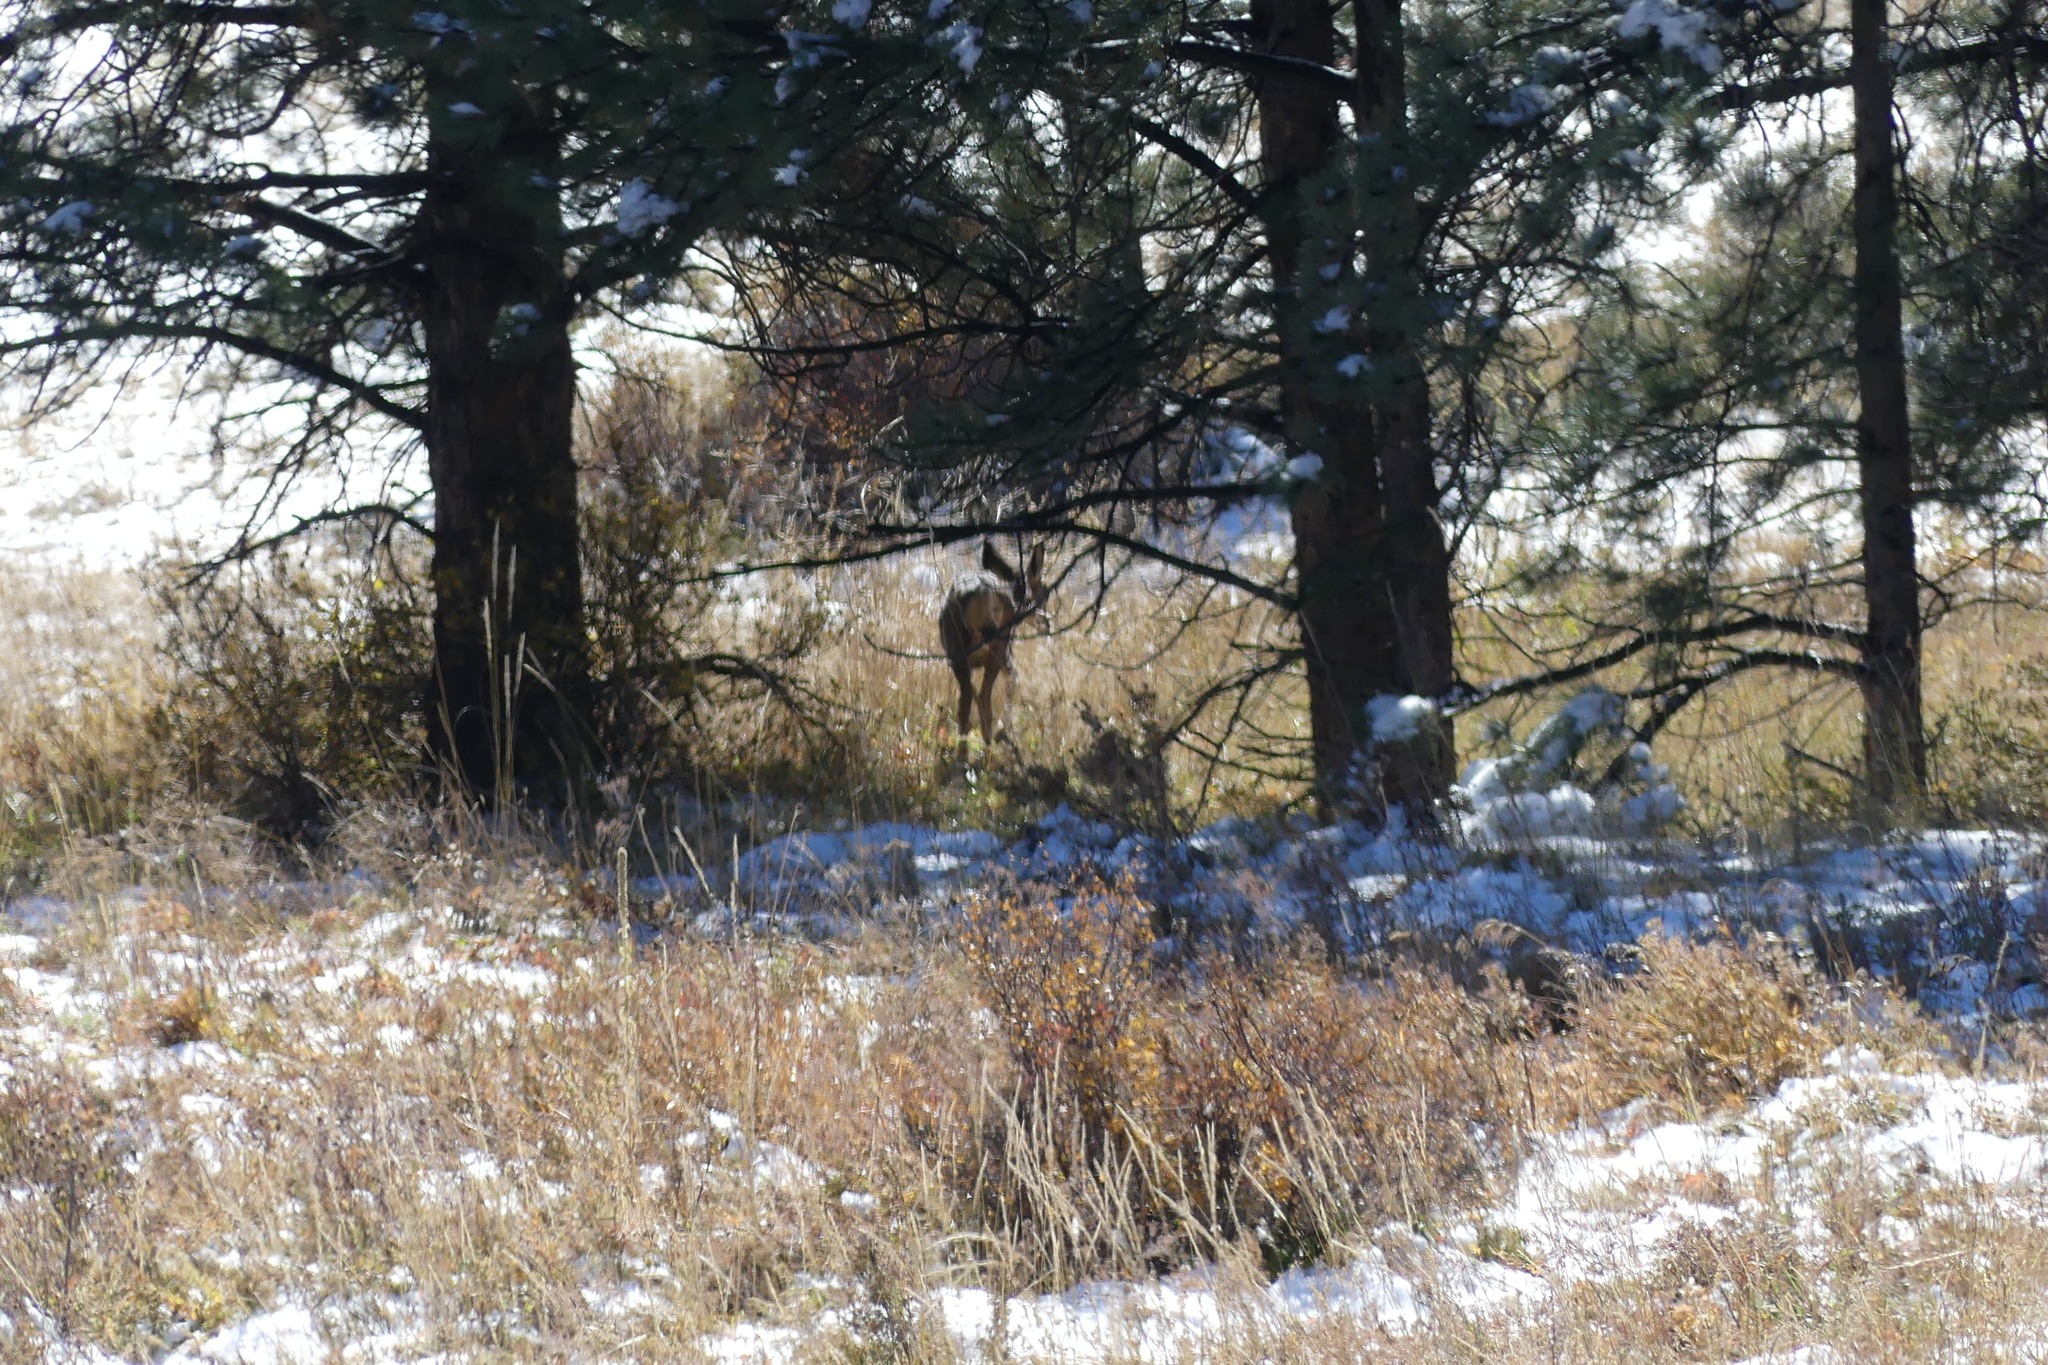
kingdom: Animalia
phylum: Chordata
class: Mammalia
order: Artiodactyla
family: Cervidae
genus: Odocoileus
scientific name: Odocoileus hemionus
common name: Mule deer
